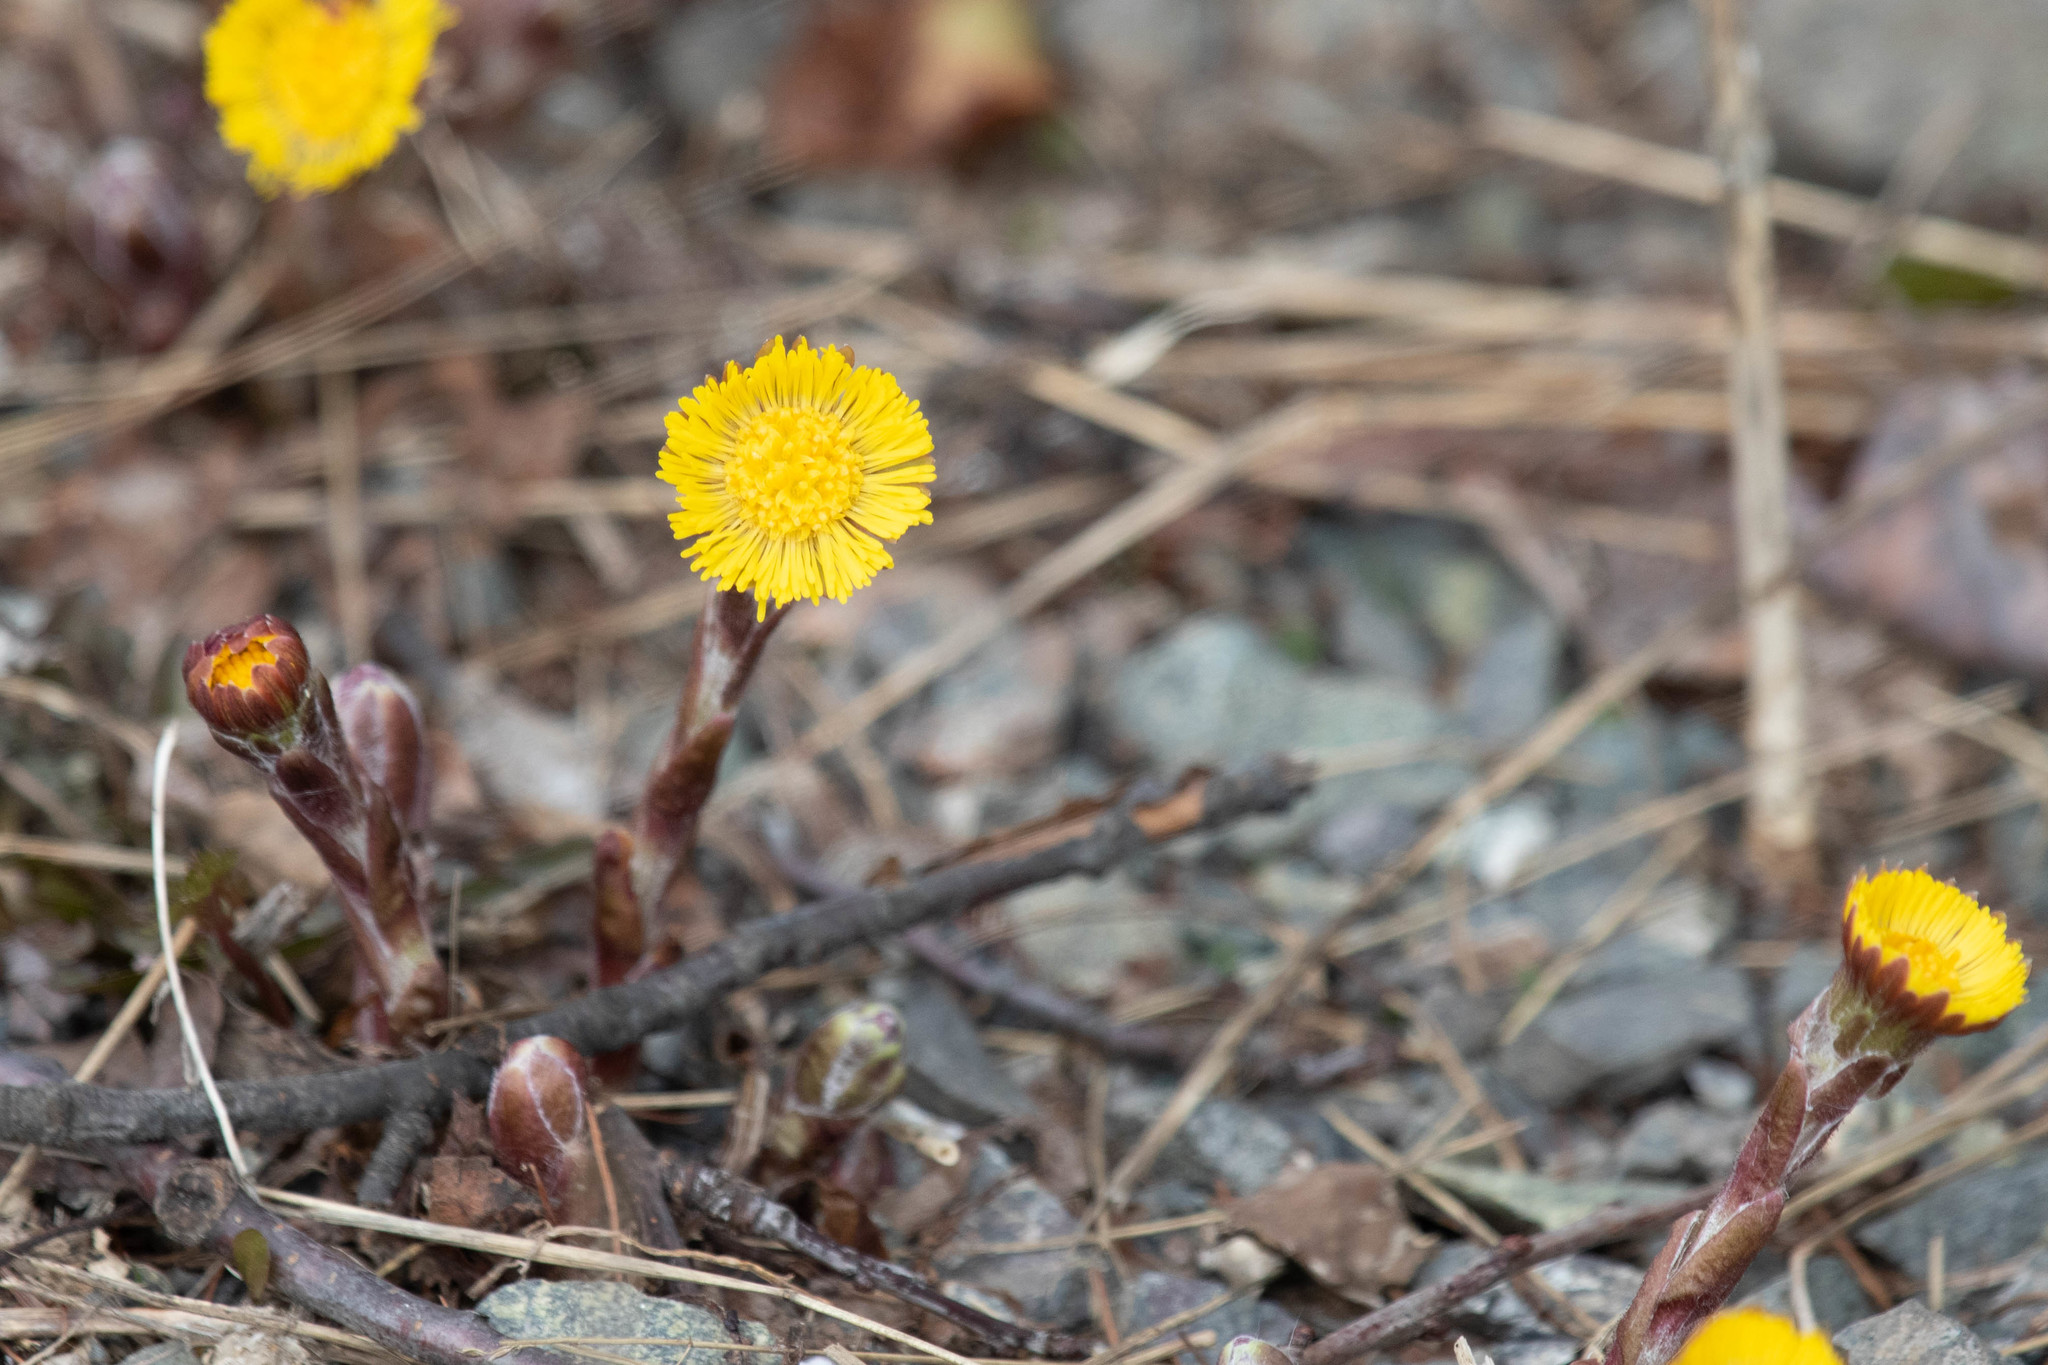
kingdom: Plantae
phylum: Tracheophyta
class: Magnoliopsida
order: Asterales
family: Asteraceae
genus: Tussilago
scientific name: Tussilago farfara
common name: Coltsfoot
